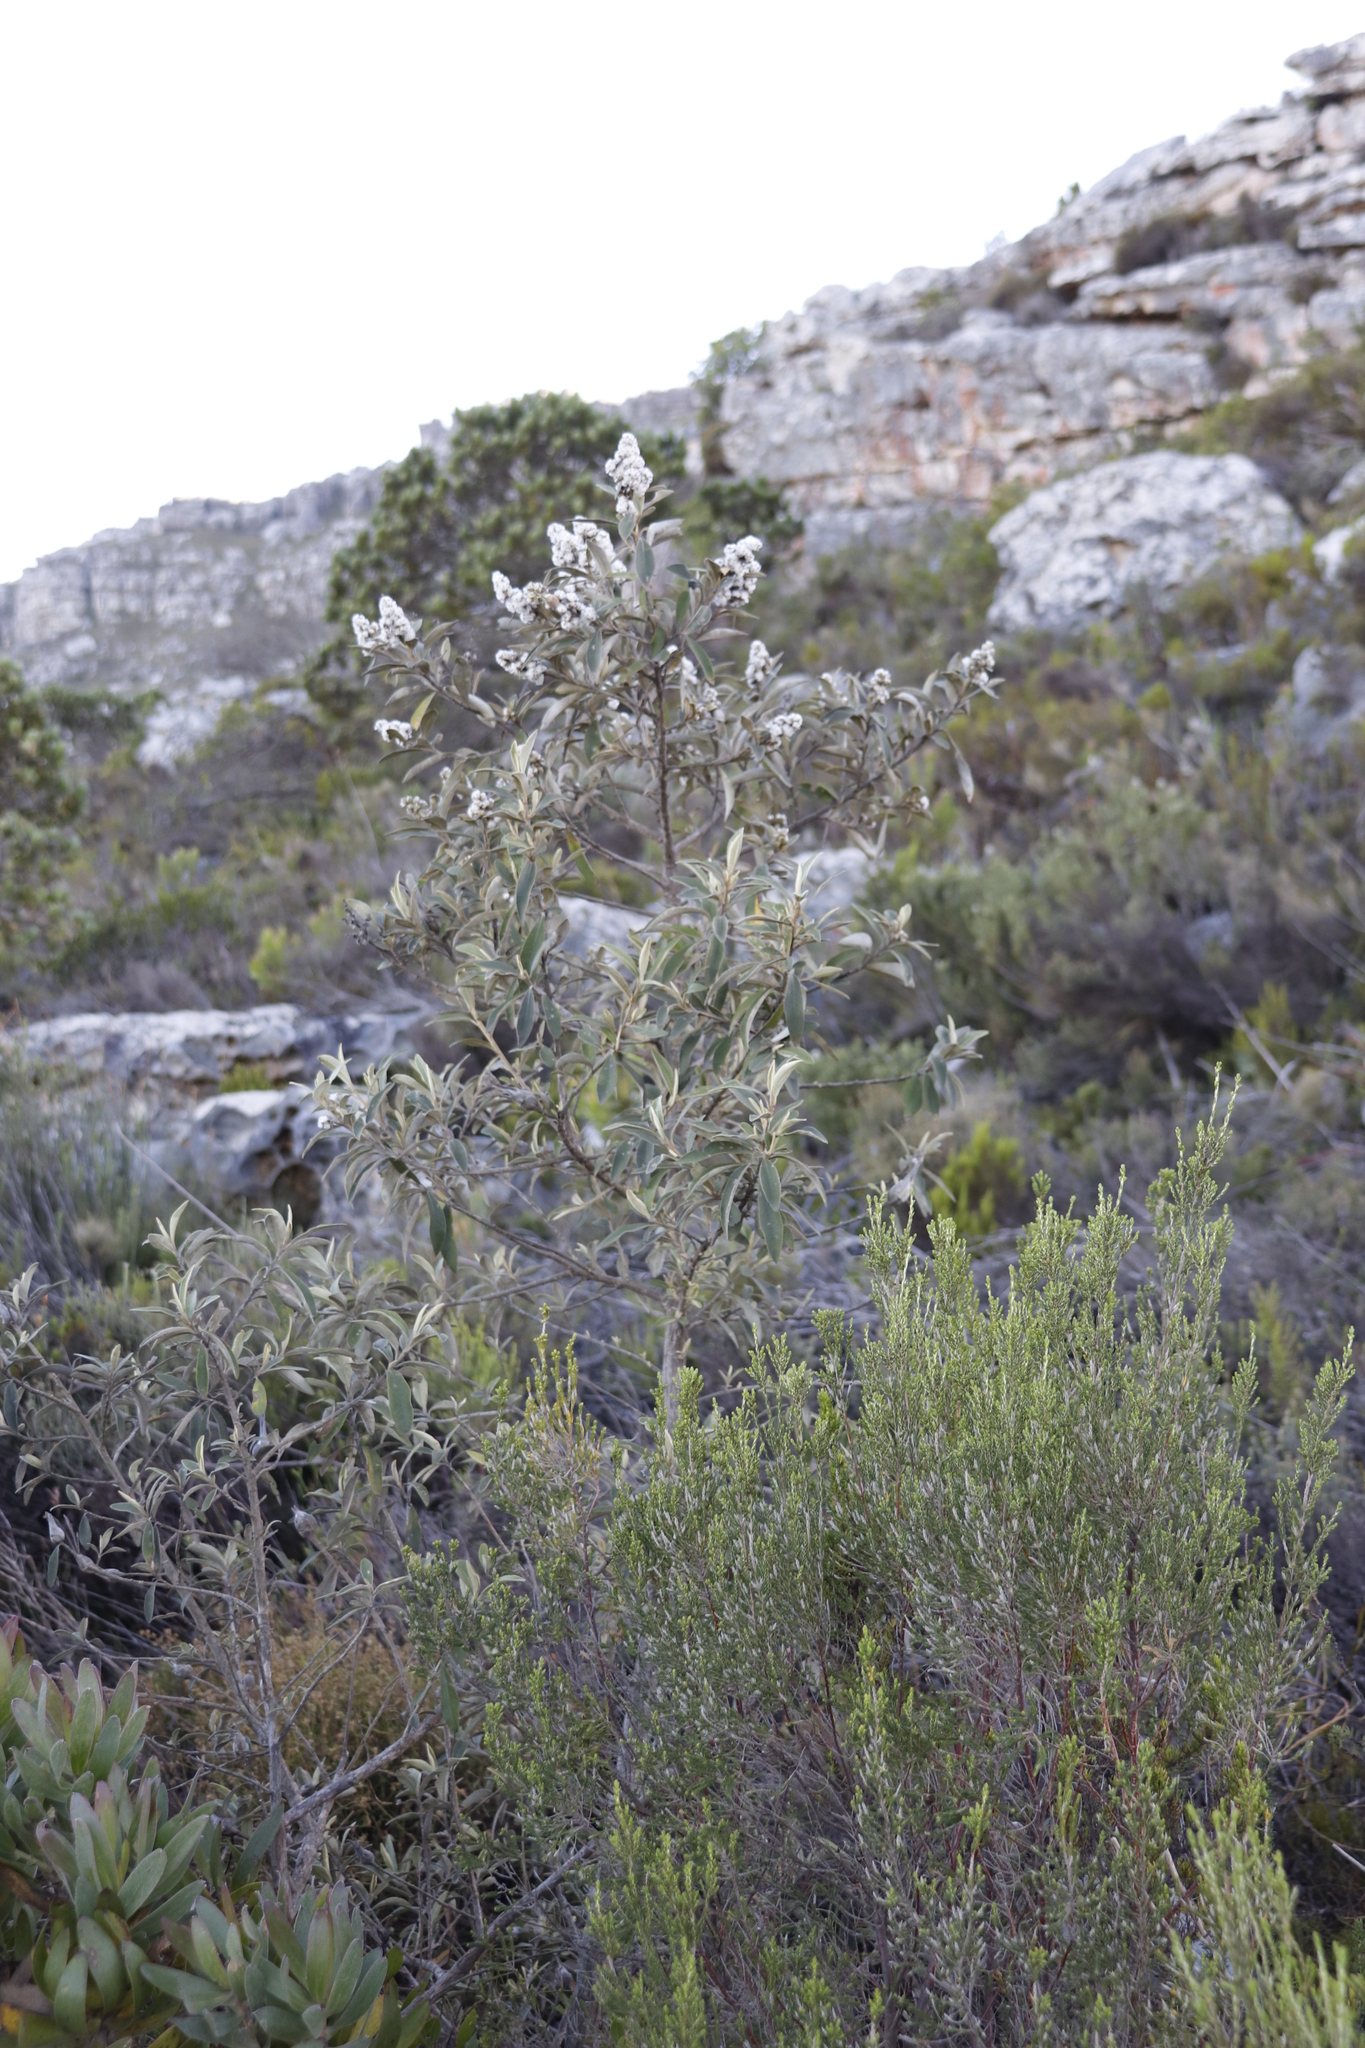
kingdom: Plantae
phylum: Tracheophyta
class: Magnoliopsida
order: Asterales
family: Asteraceae
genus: Tarchonanthus
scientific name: Tarchonanthus littoralis
